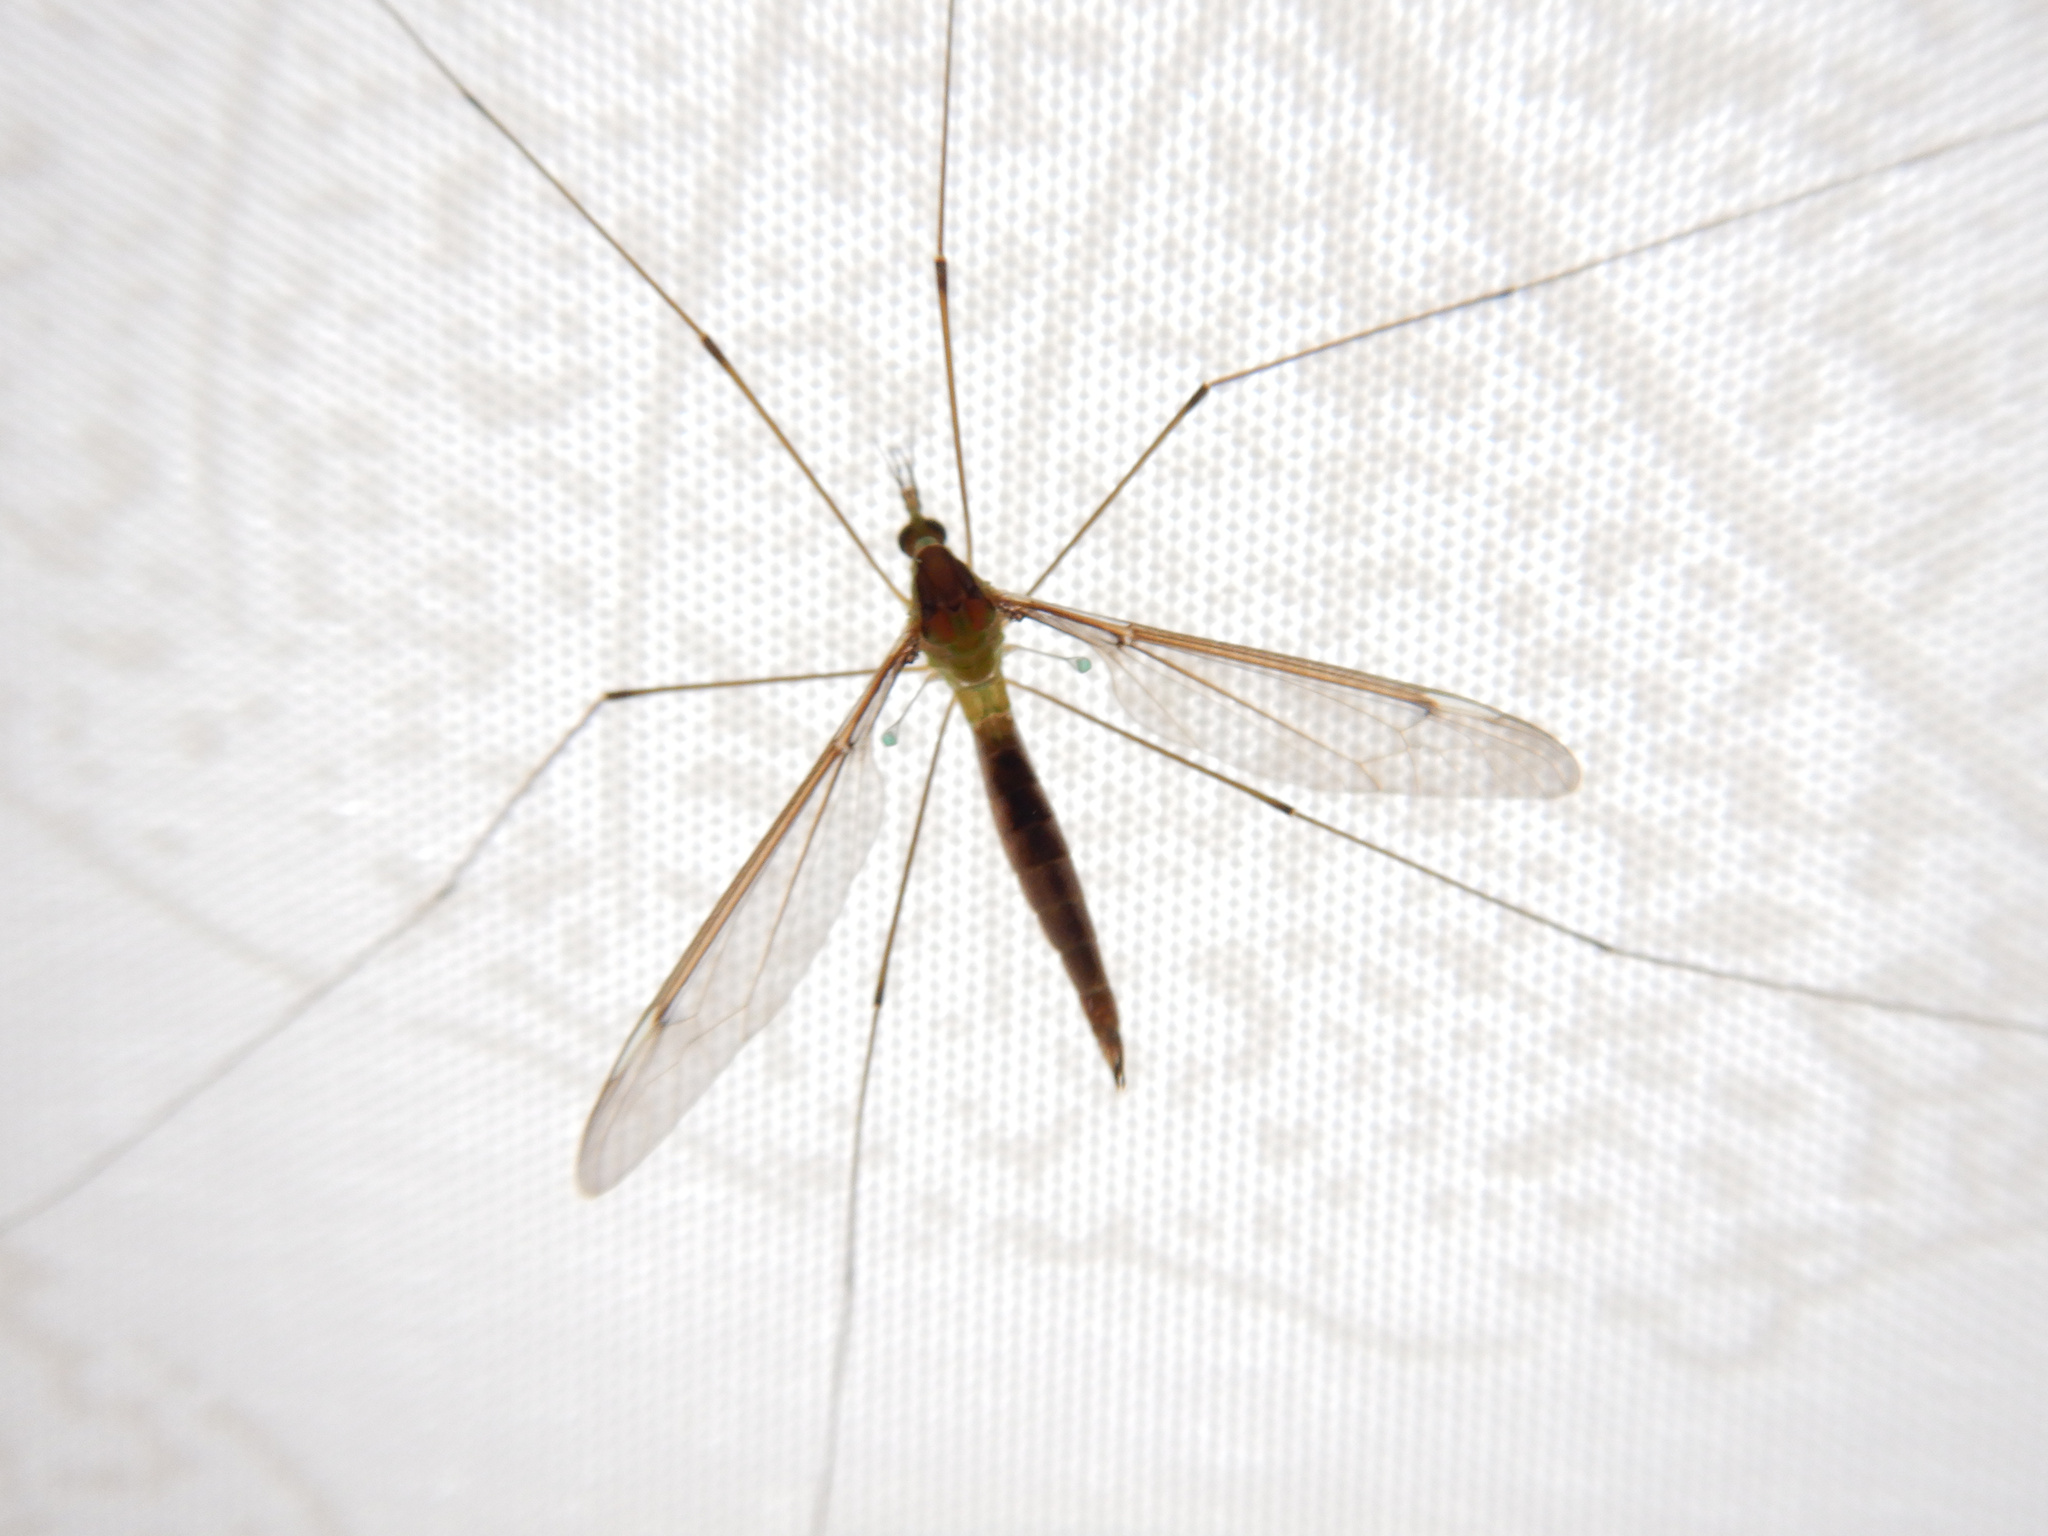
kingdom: Animalia
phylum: Arthropoda
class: Insecta
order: Diptera
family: Tipulidae
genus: Leptotarsus
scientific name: Leptotarsus albistigma
